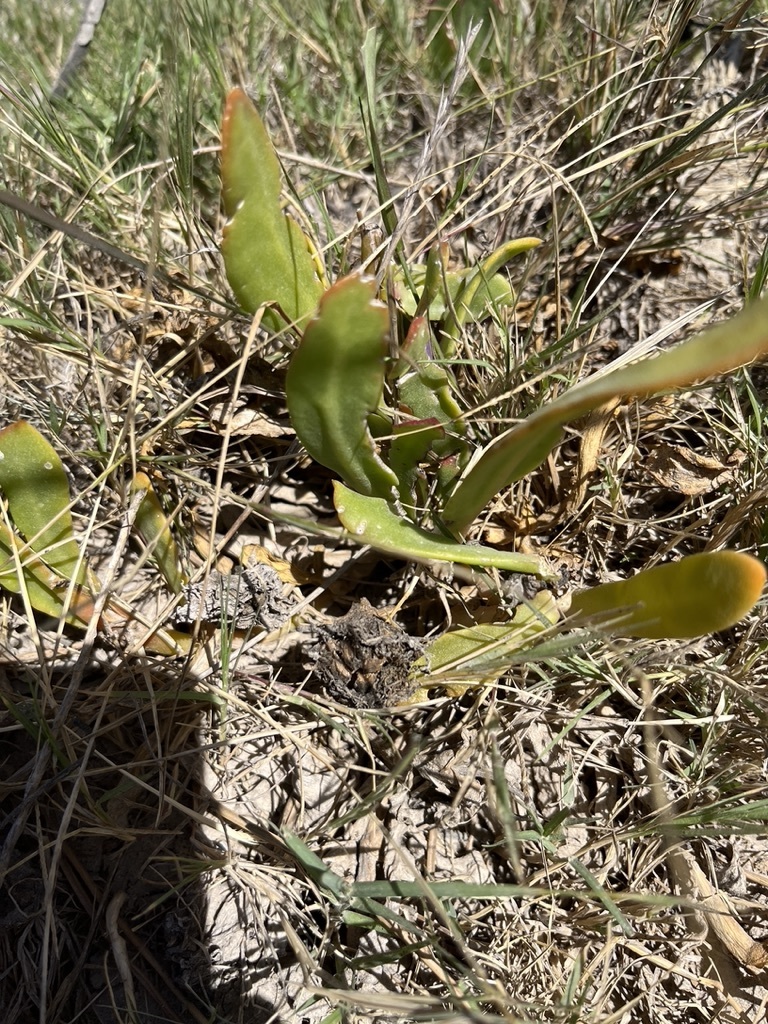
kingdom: Plantae
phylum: Tracheophyta
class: Magnoliopsida
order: Caryophyllales
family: Aizoaceae
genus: Skiatophytum
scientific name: Skiatophytum skiatophytoides
